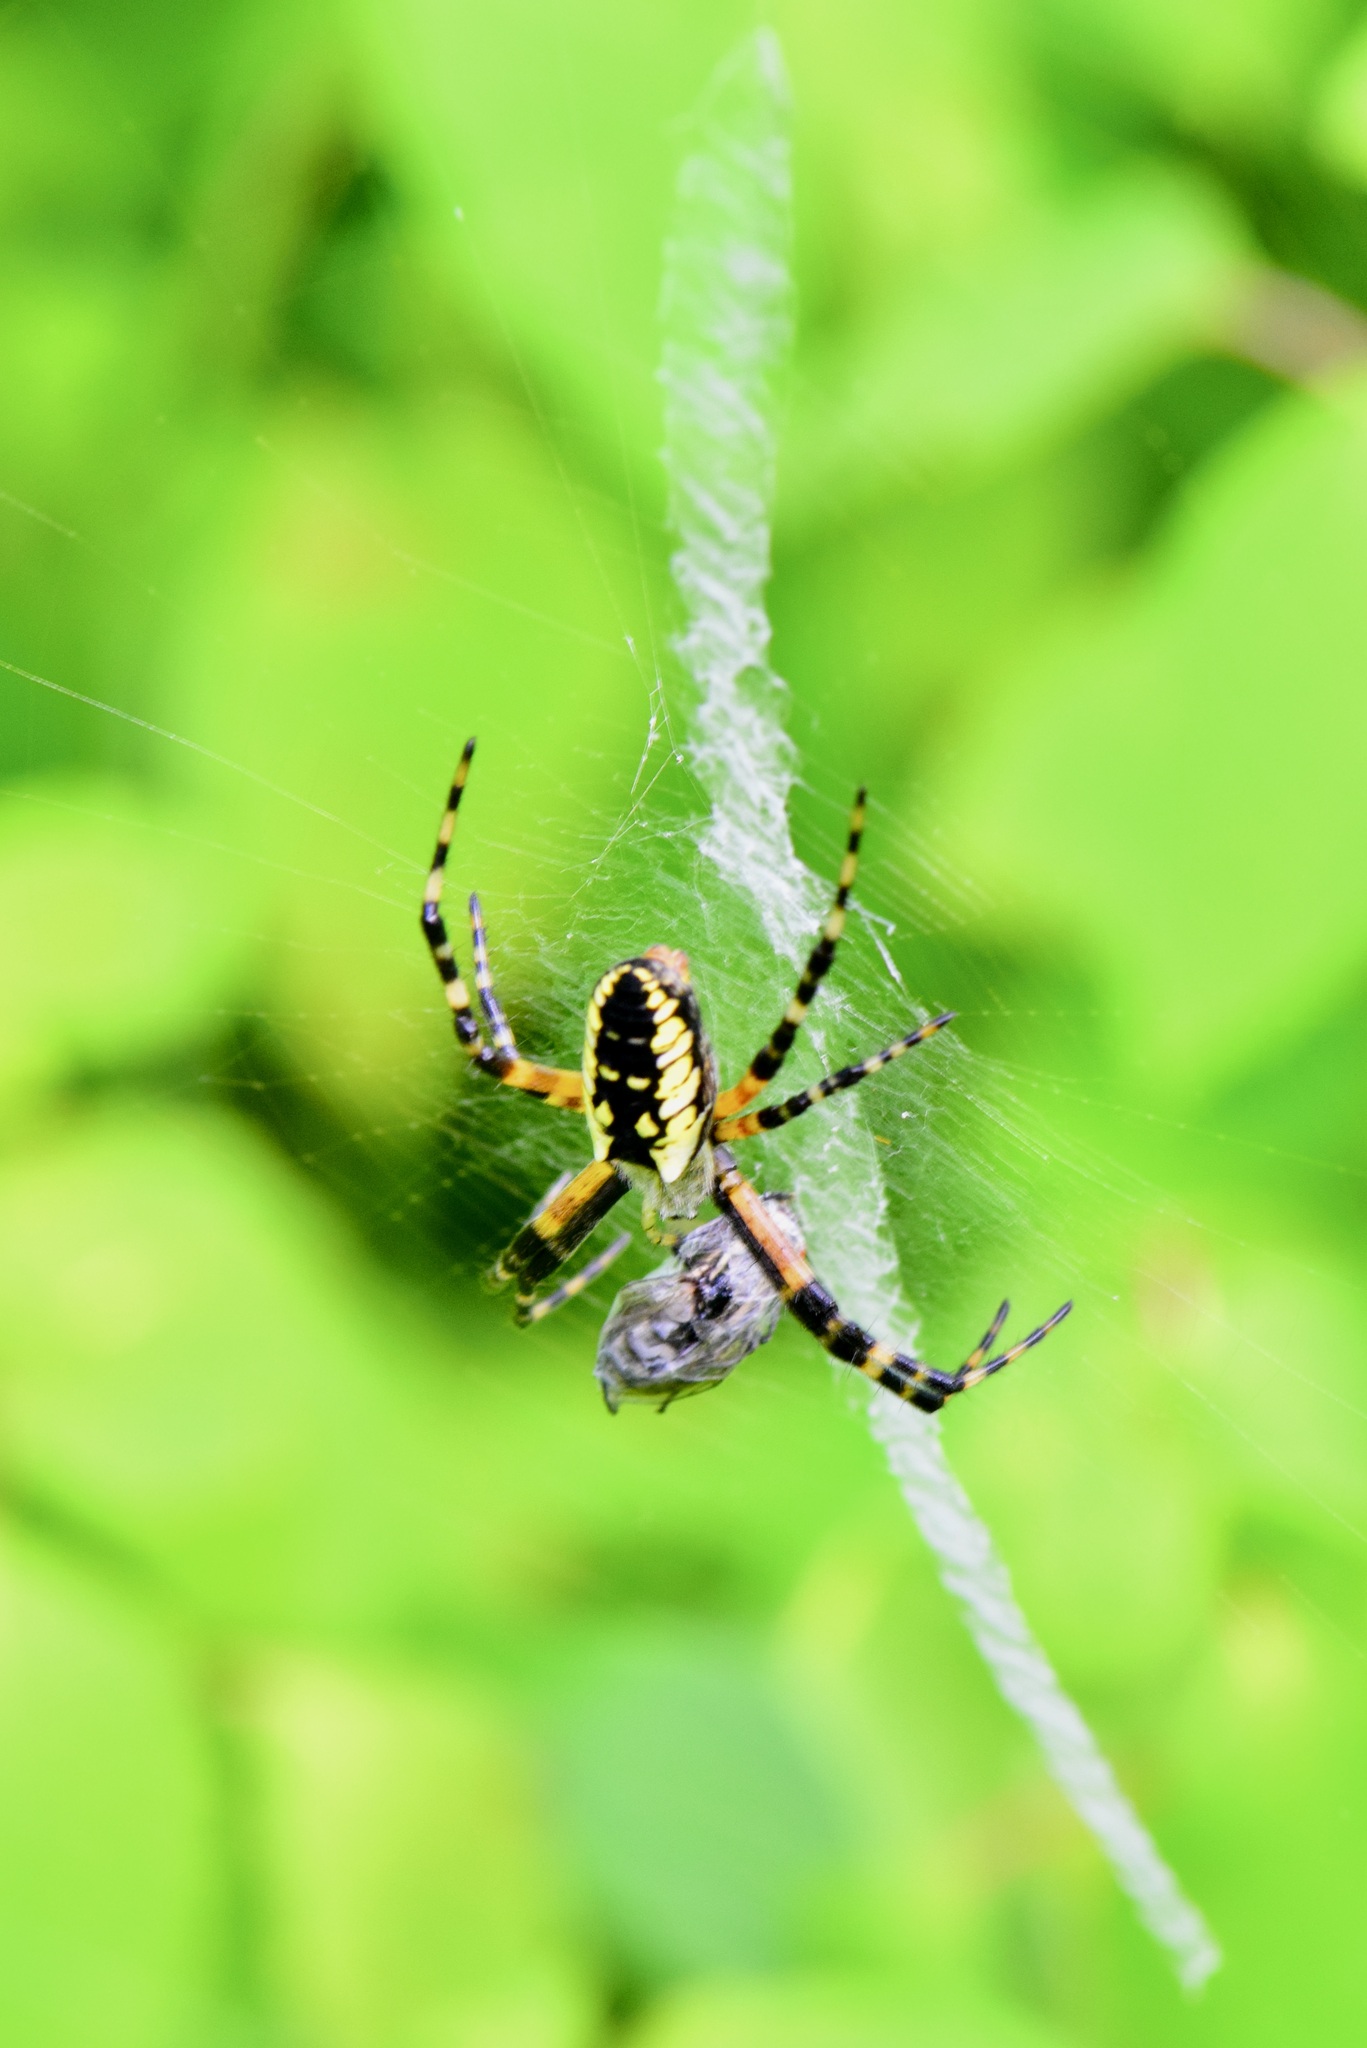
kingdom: Animalia
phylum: Arthropoda
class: Arachnida
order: Araneae
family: Araneidae
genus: Argiope
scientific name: Argiope aurantia
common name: Orb weavers
